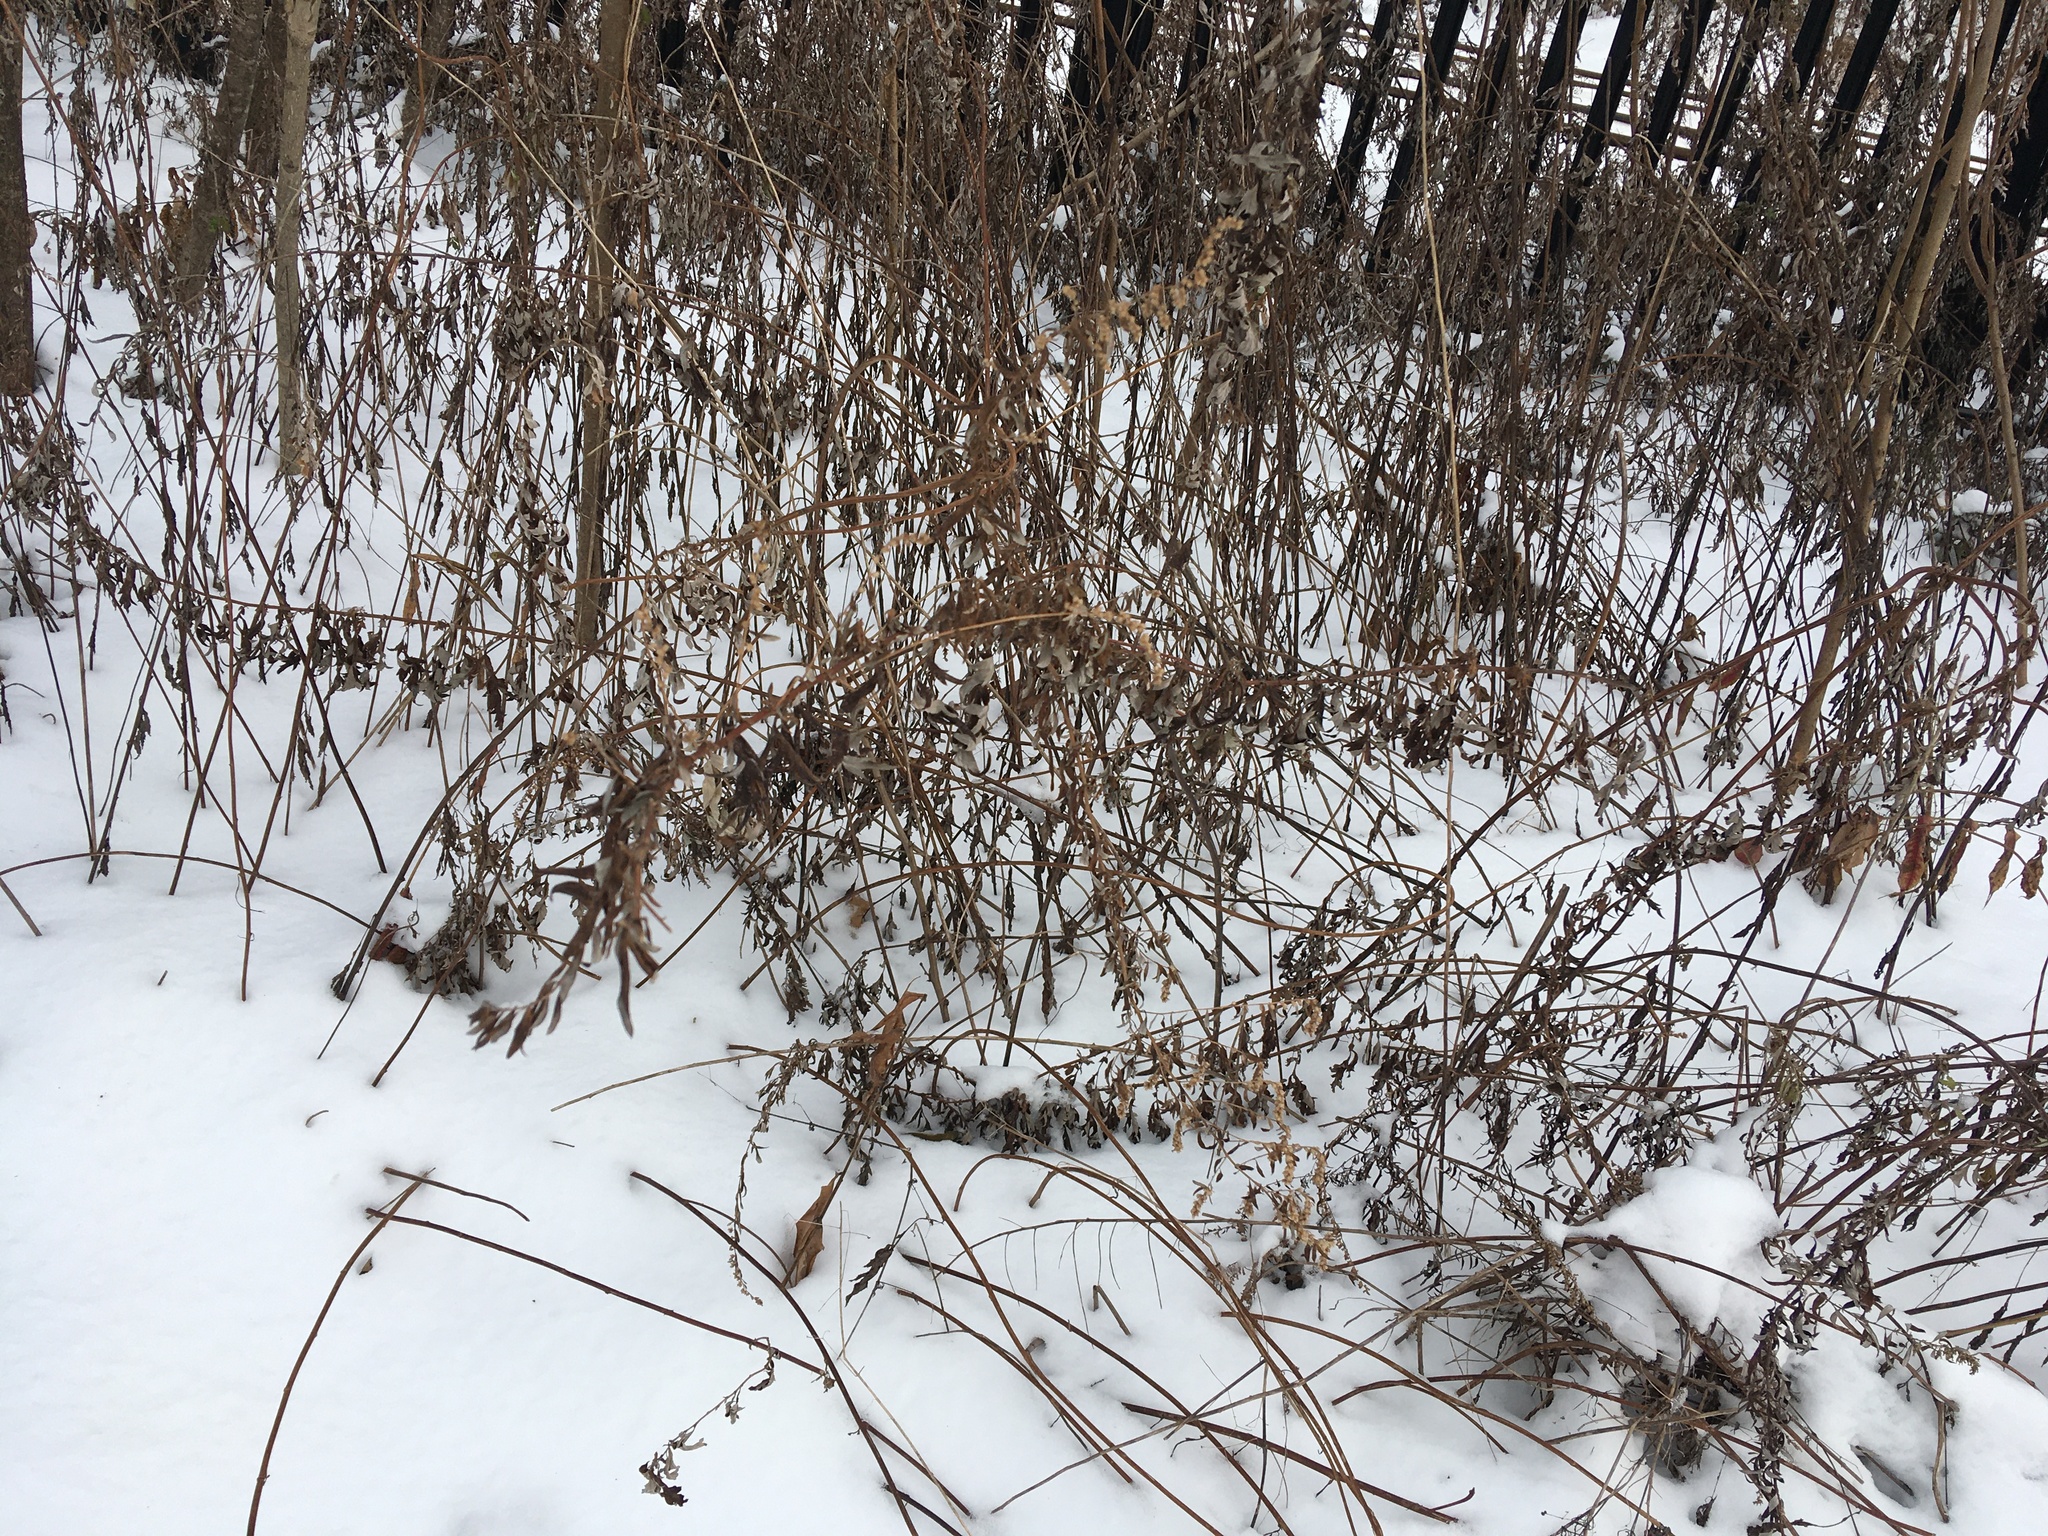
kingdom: Plantae
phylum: Tracheophyta
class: Magnoliopsida
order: Asterales
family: Asteraceae
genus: Artemisia
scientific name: Artemisia vulgaris
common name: Mugwort
